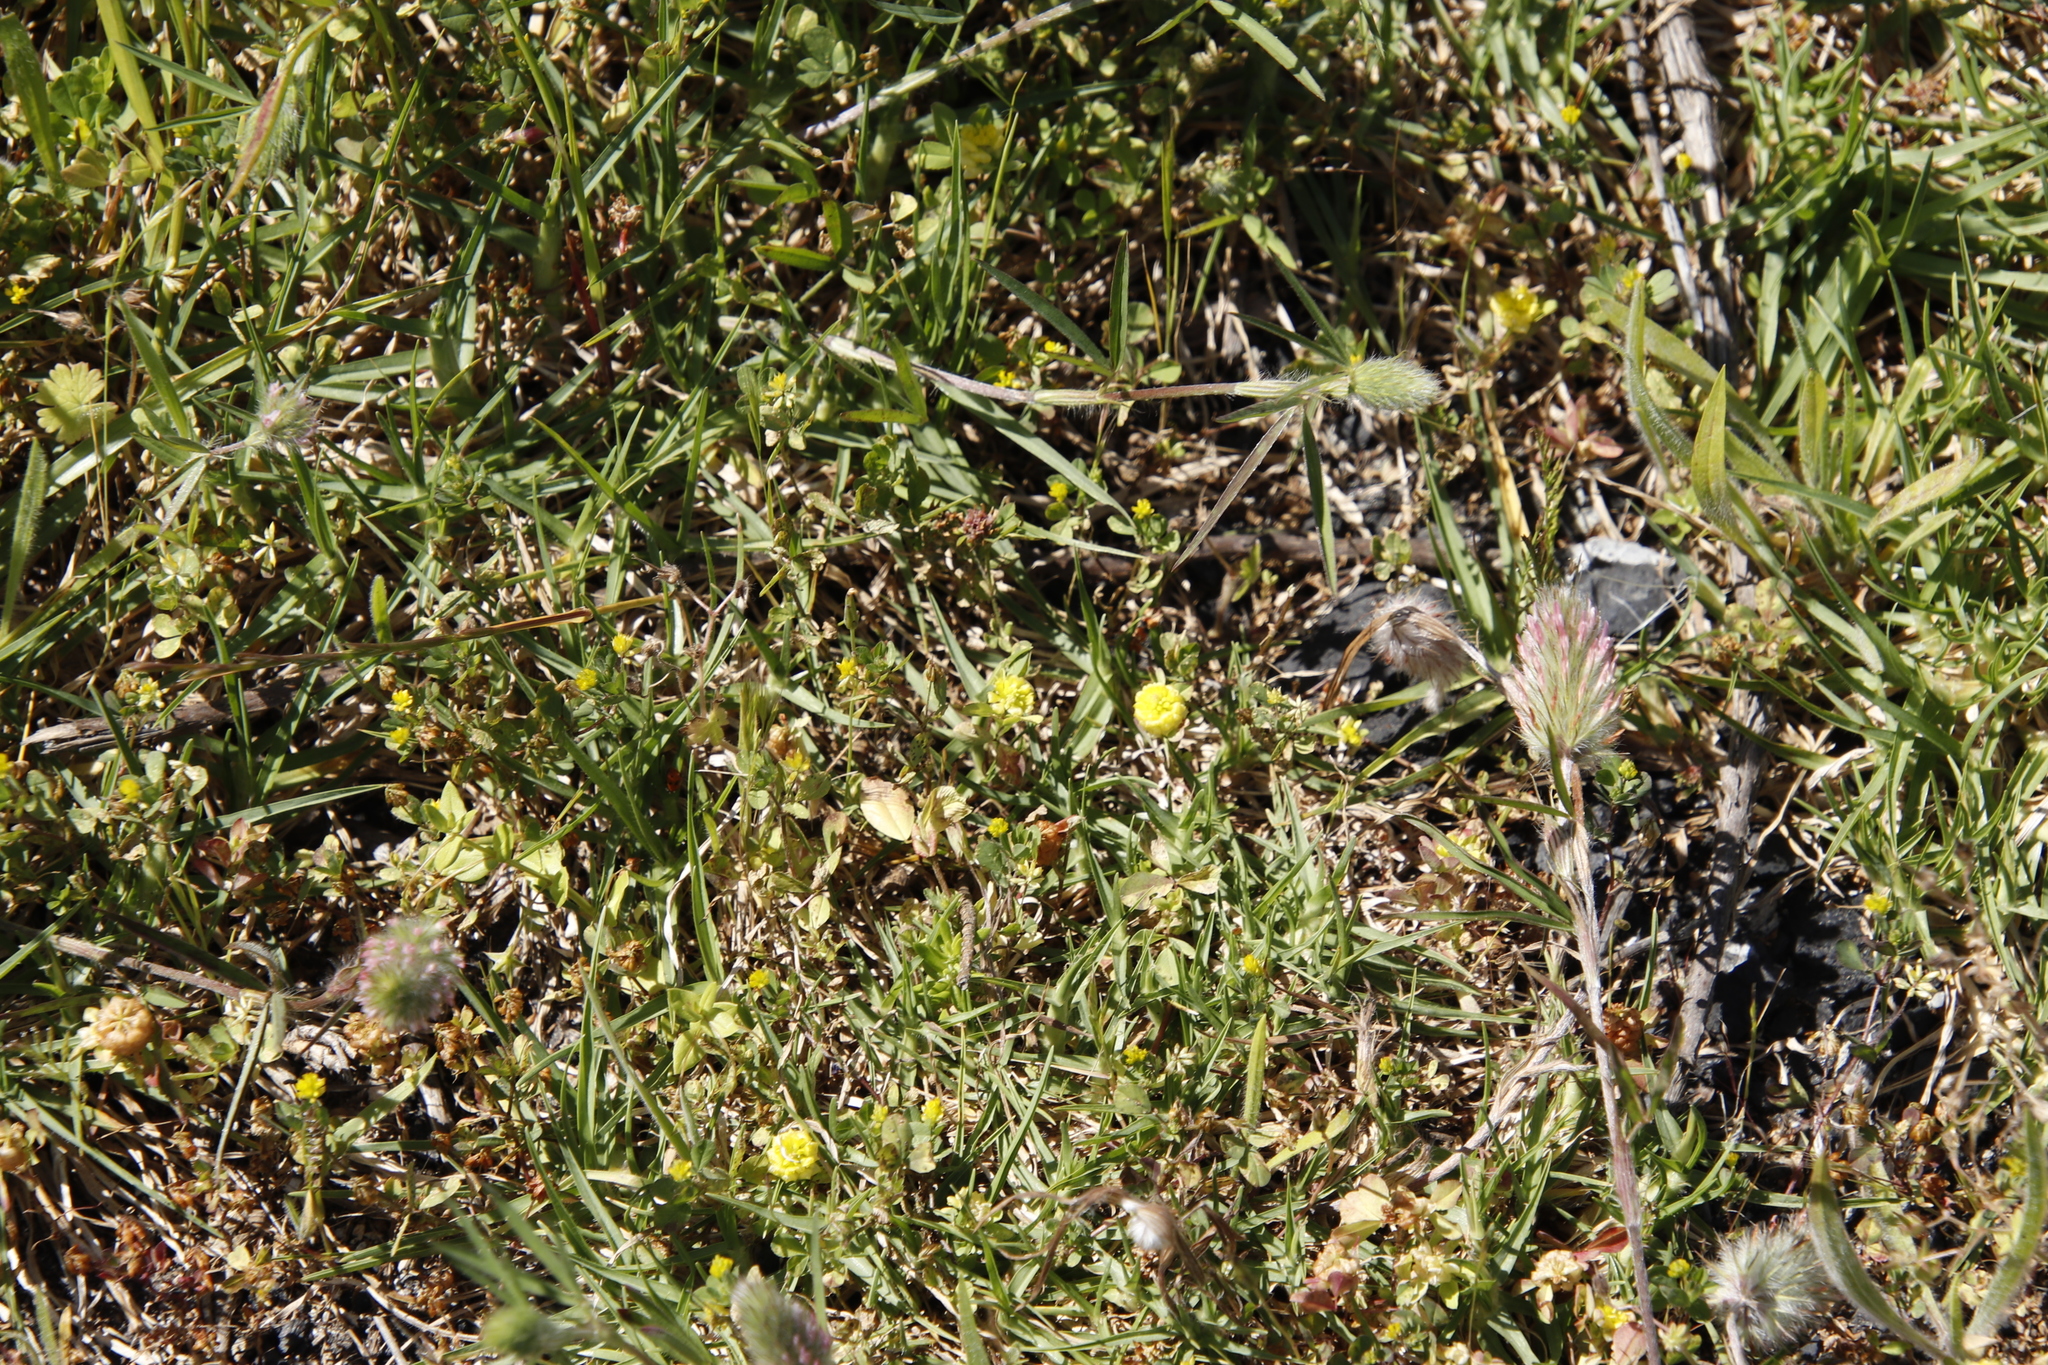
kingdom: Plantae
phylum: Tracheophyta
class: Magnoliopsida
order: Fabales
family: Fabaceae
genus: Trifolium
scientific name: Trifolium campestre
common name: Field clover
